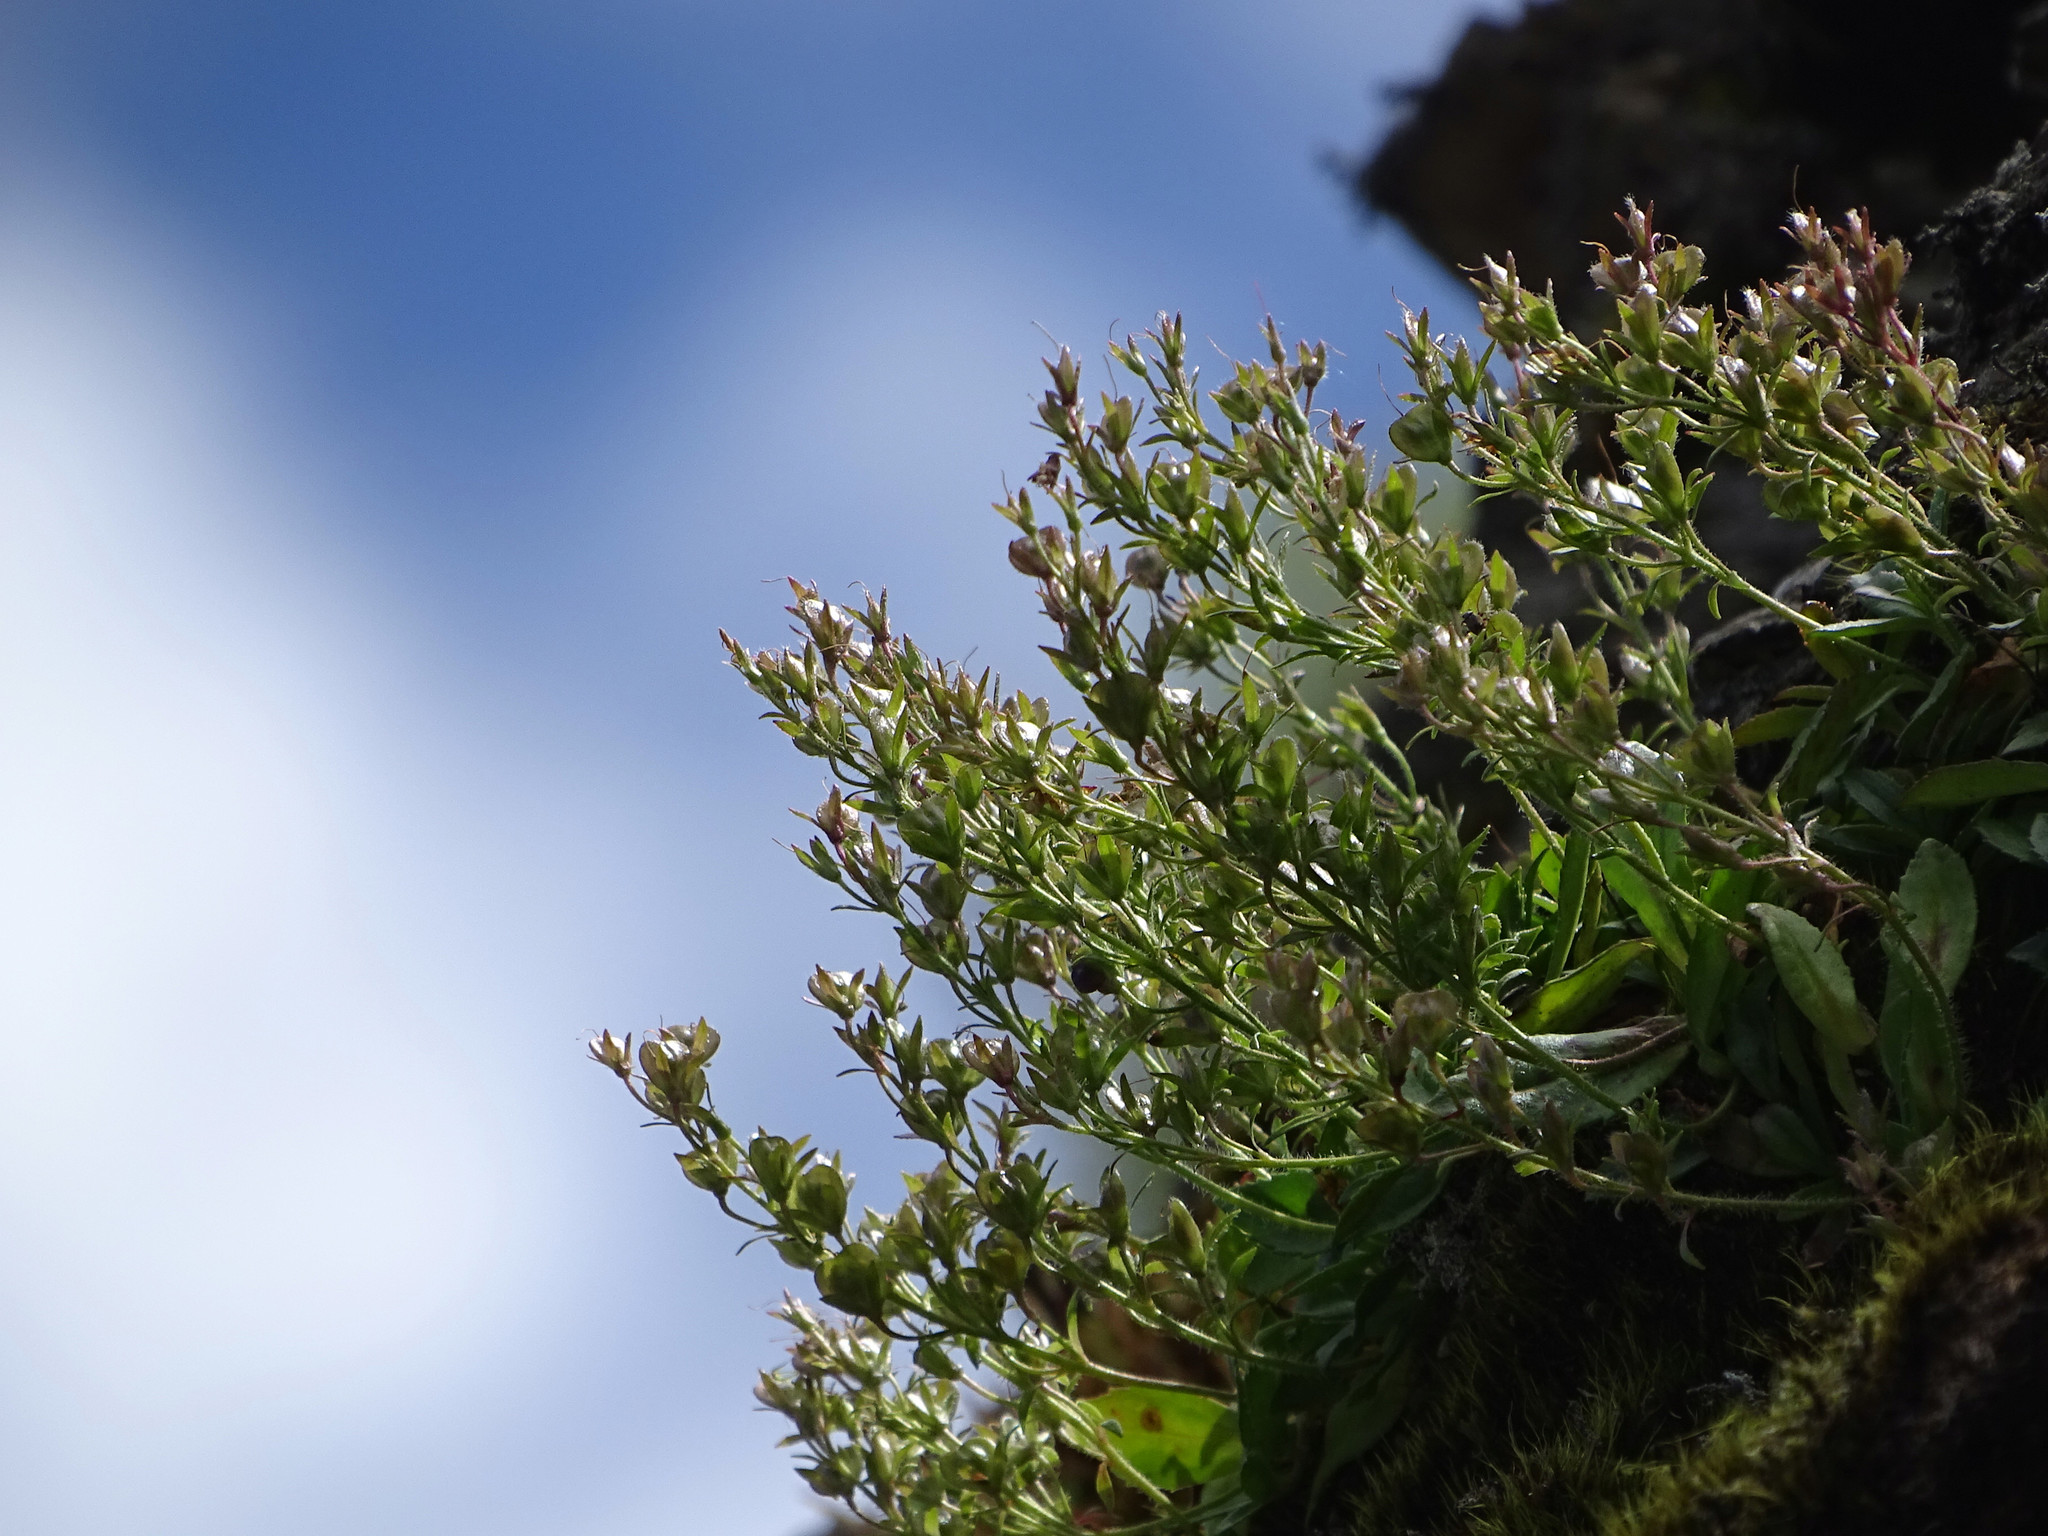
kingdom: Plantae
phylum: Tracheophyta
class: Magnoliopsida
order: Lamiales
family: Plantaginaceae
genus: Veronica
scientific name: Veronica morrisonicola
